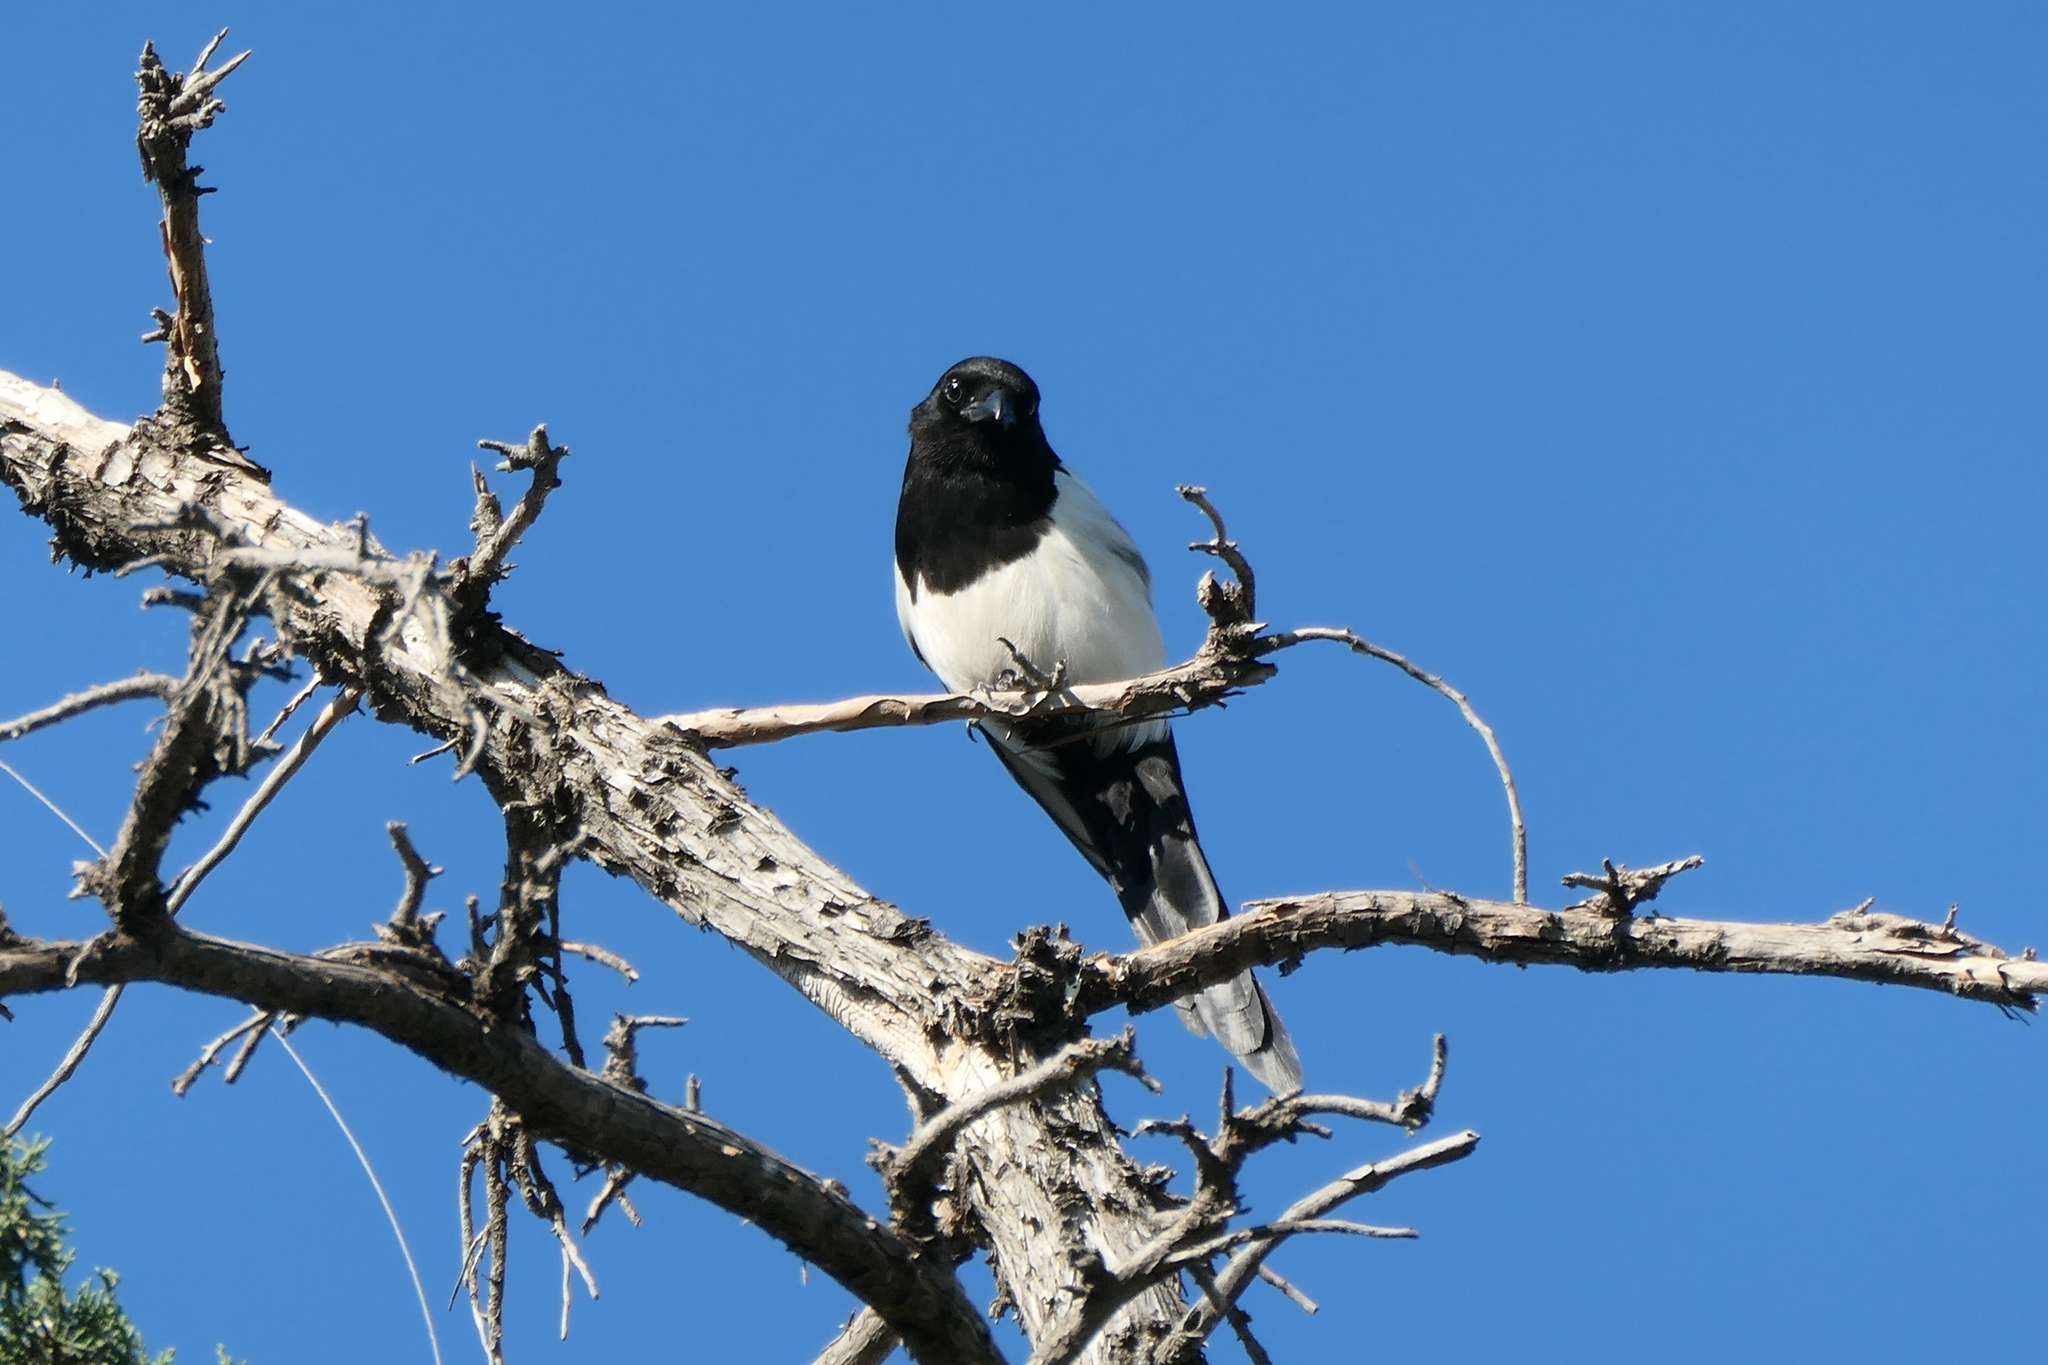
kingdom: Animalia
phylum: Chordata
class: Aves
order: Passeriformes
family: Corvidae
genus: Pica
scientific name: Pica pica
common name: Eurasian magpie
